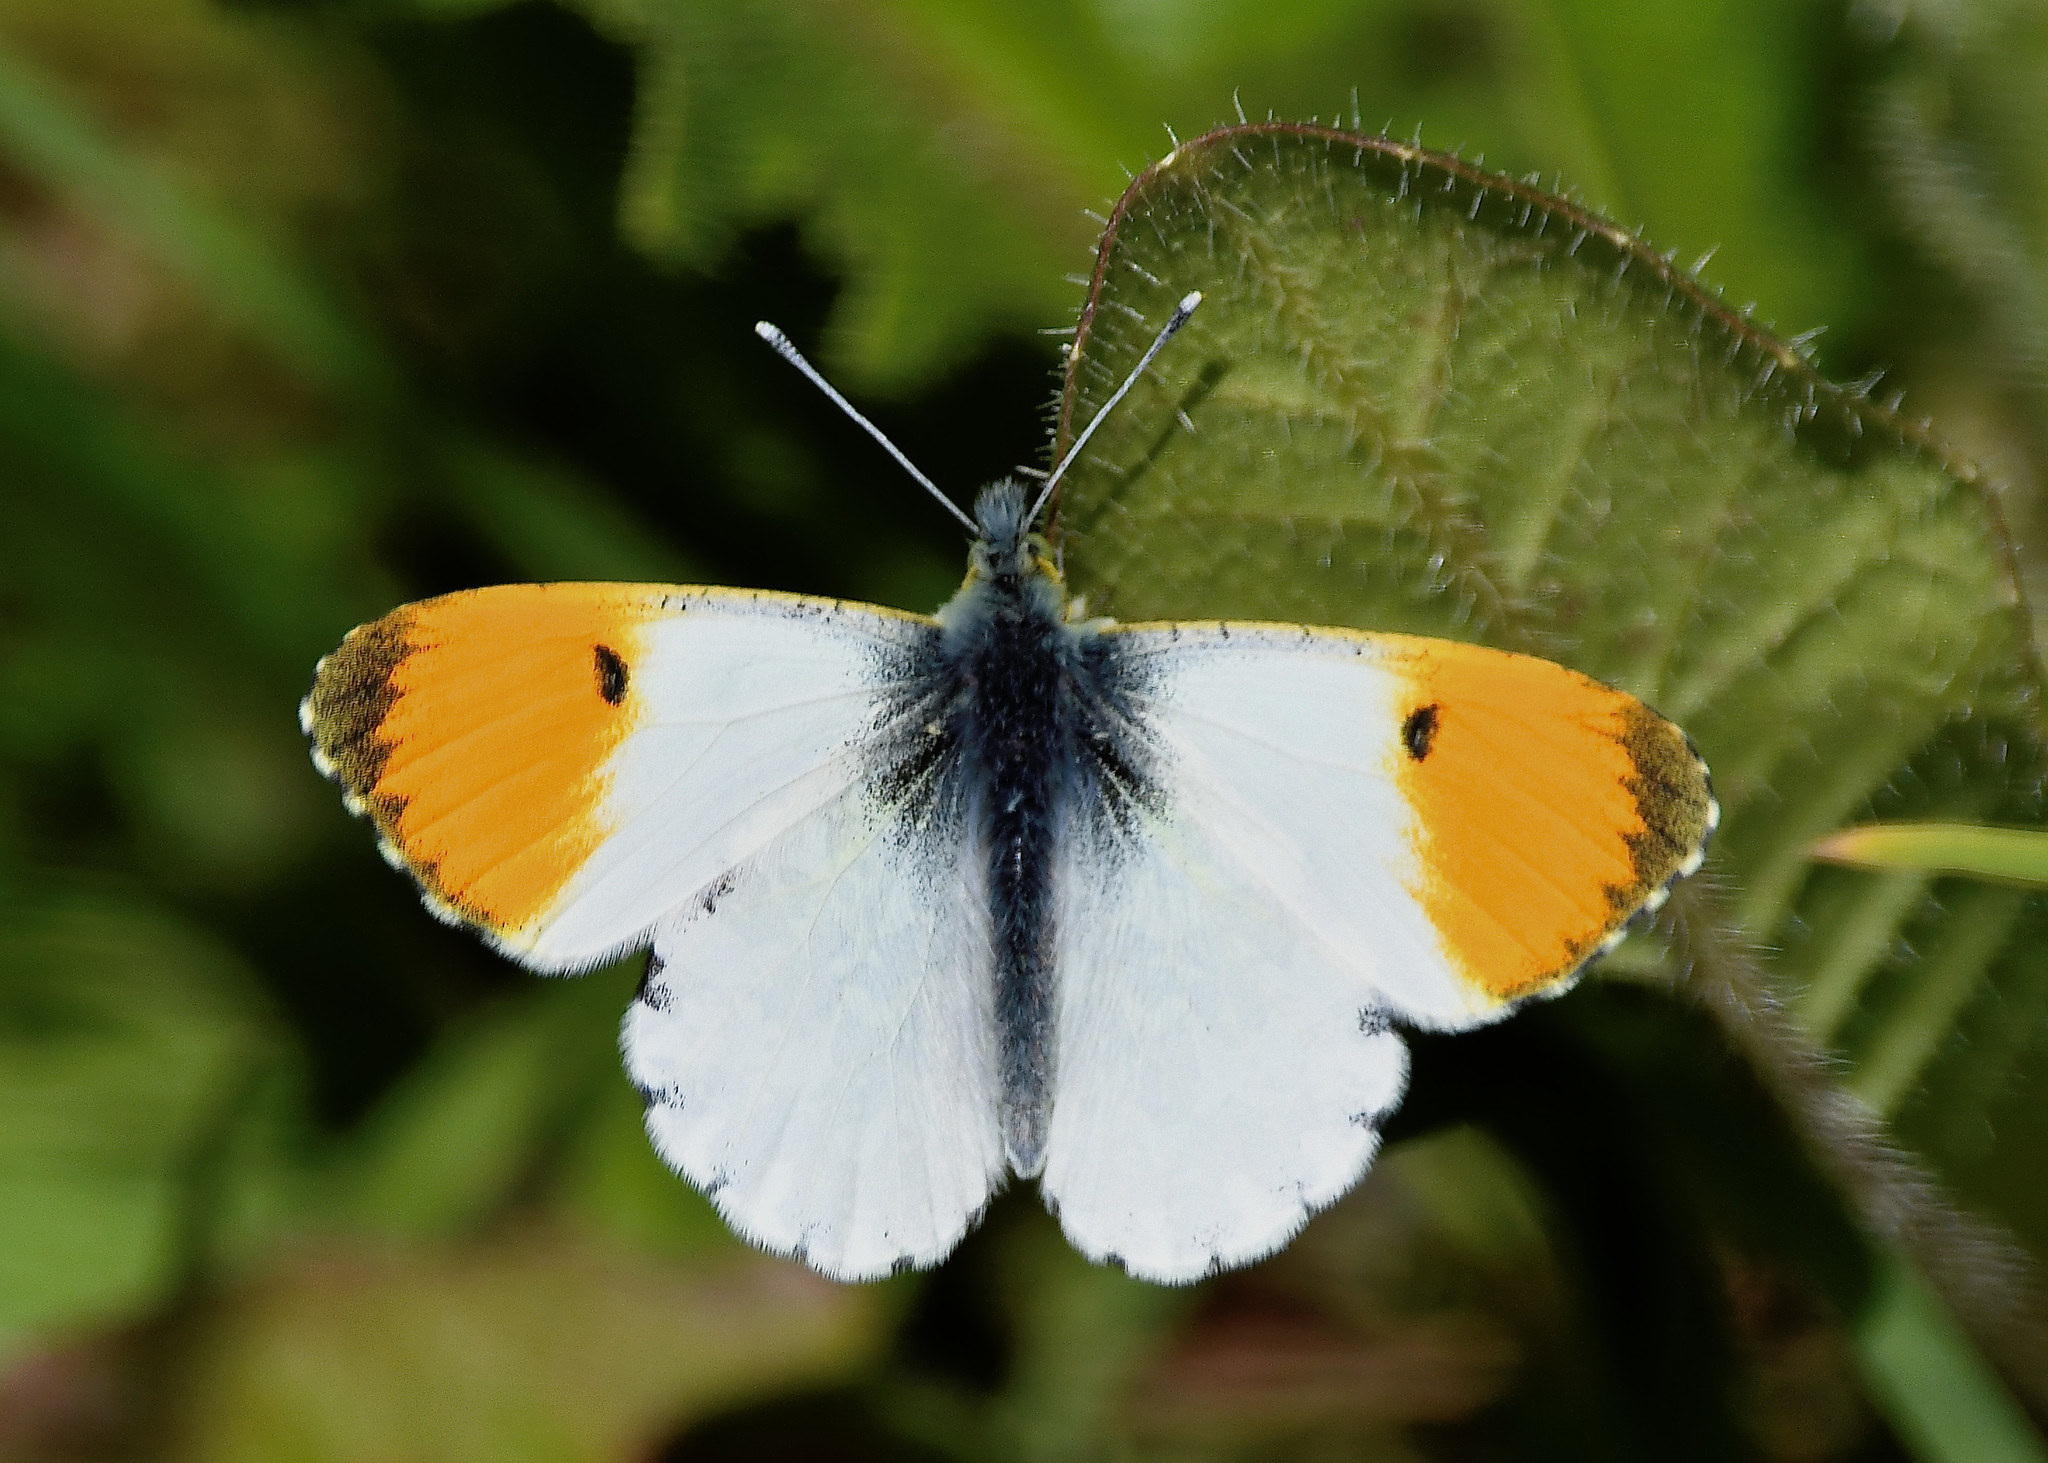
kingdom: Animalia
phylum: Arthropoda
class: Insecta
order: Lepidoptera
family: Pieridae
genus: Anthocharis
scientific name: Anthocharis cardamines
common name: Orange-tip
